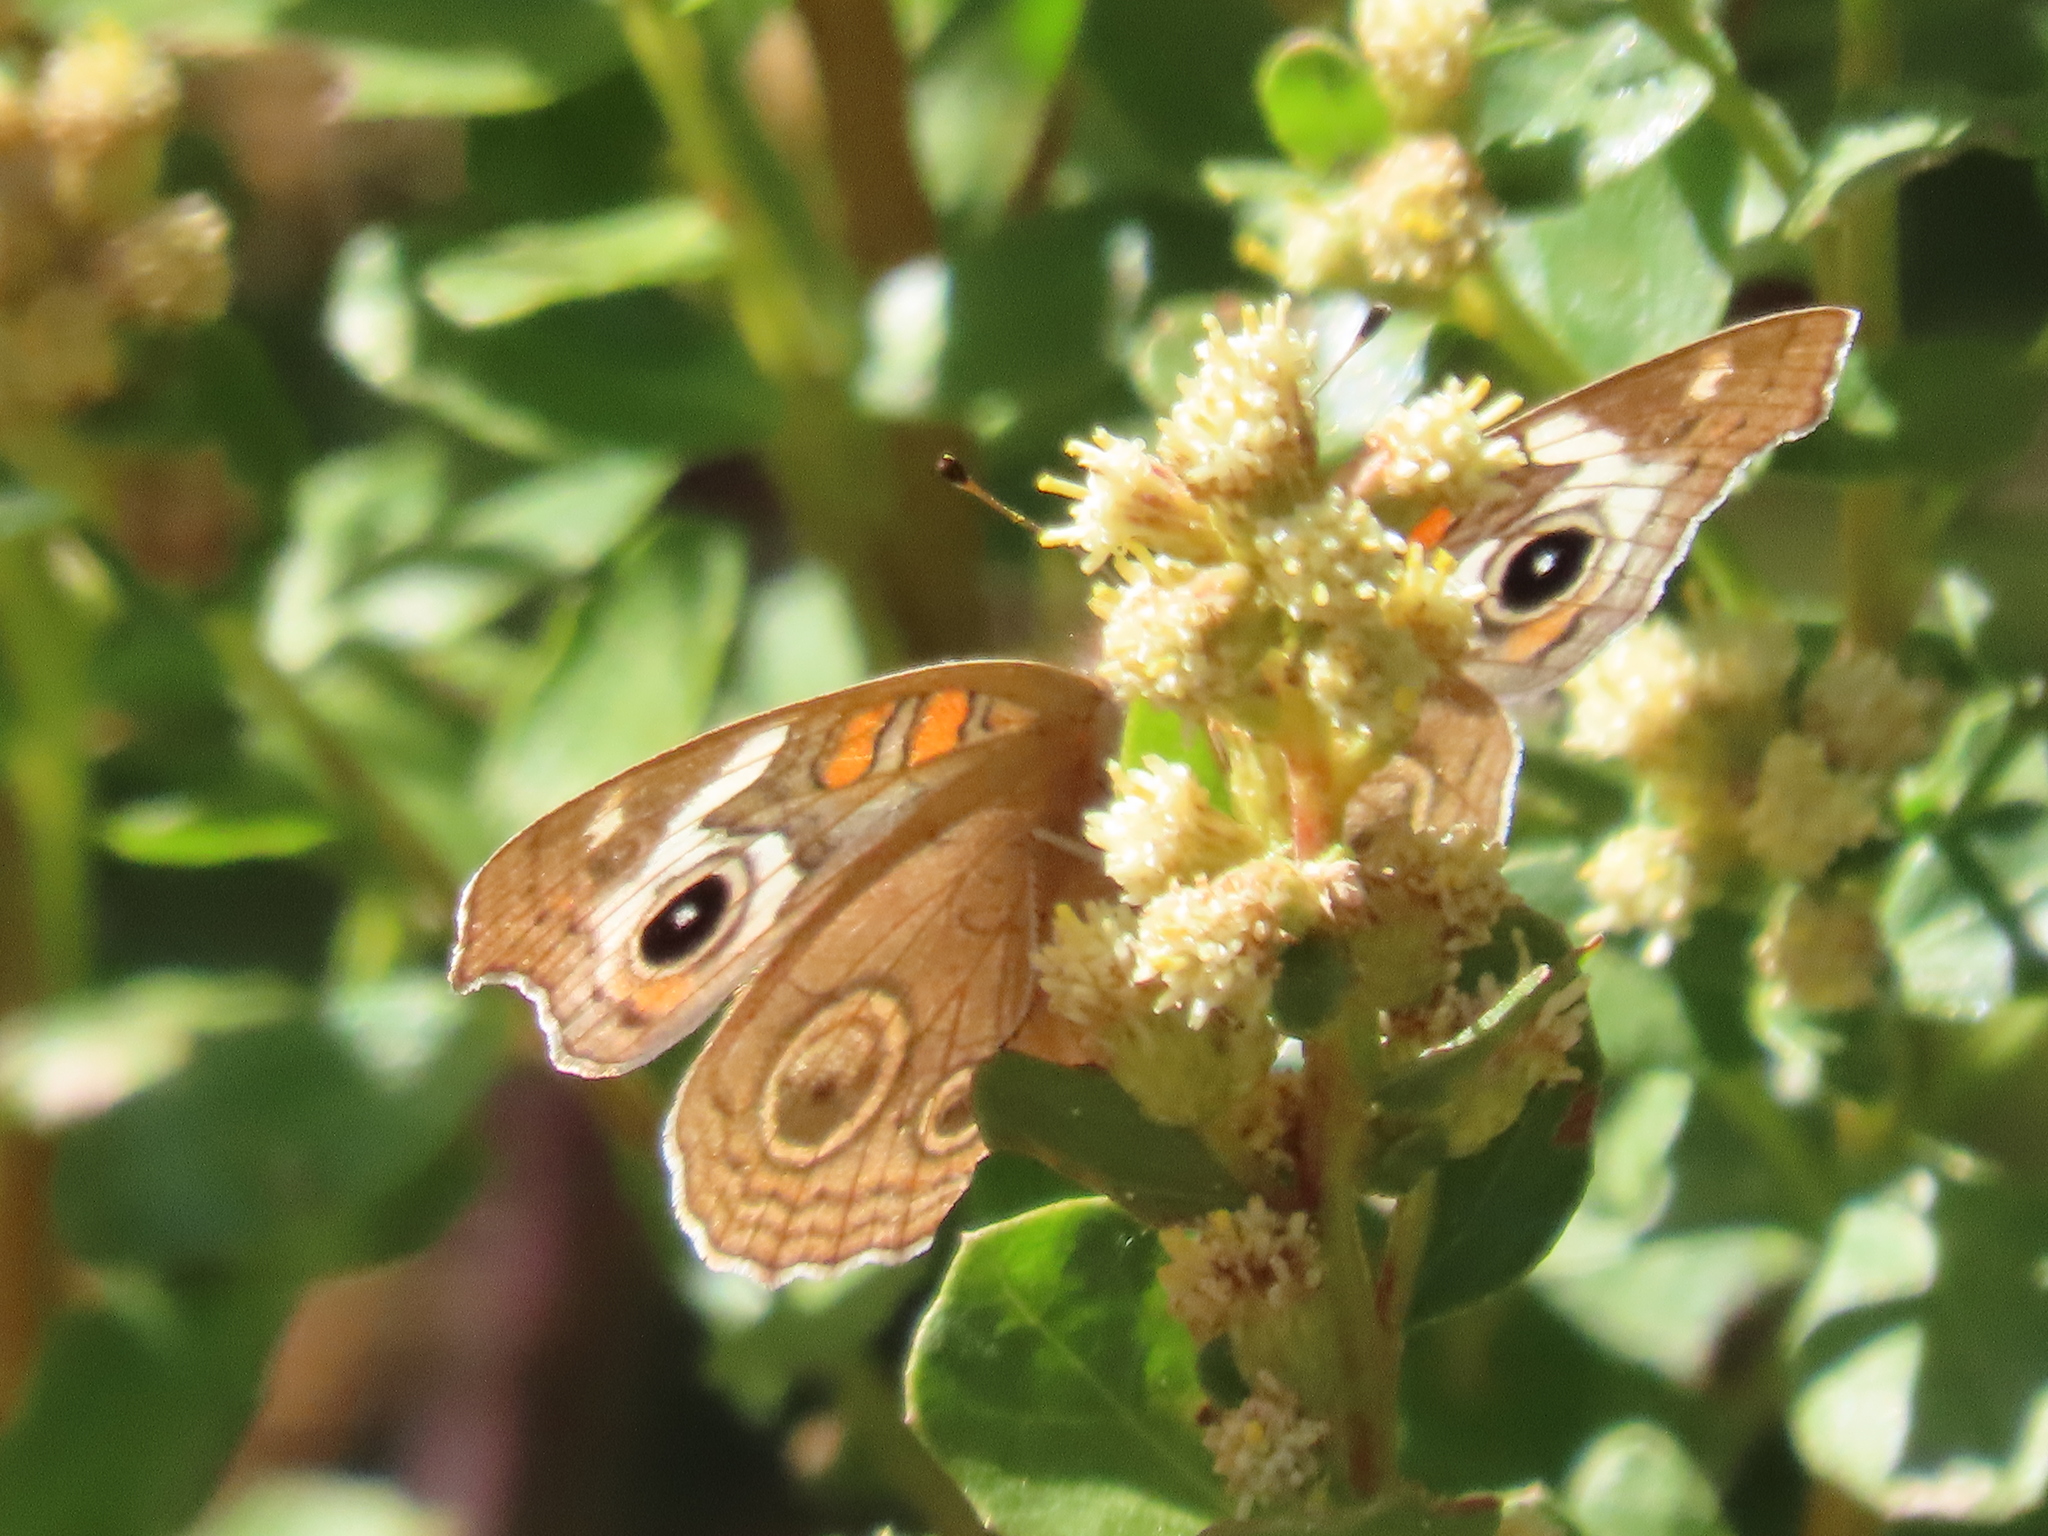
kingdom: Animalia
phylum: Arthropoda
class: Insecta
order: Lepidoptera
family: Nymphalidae
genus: Junonia
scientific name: Junonia grisea
